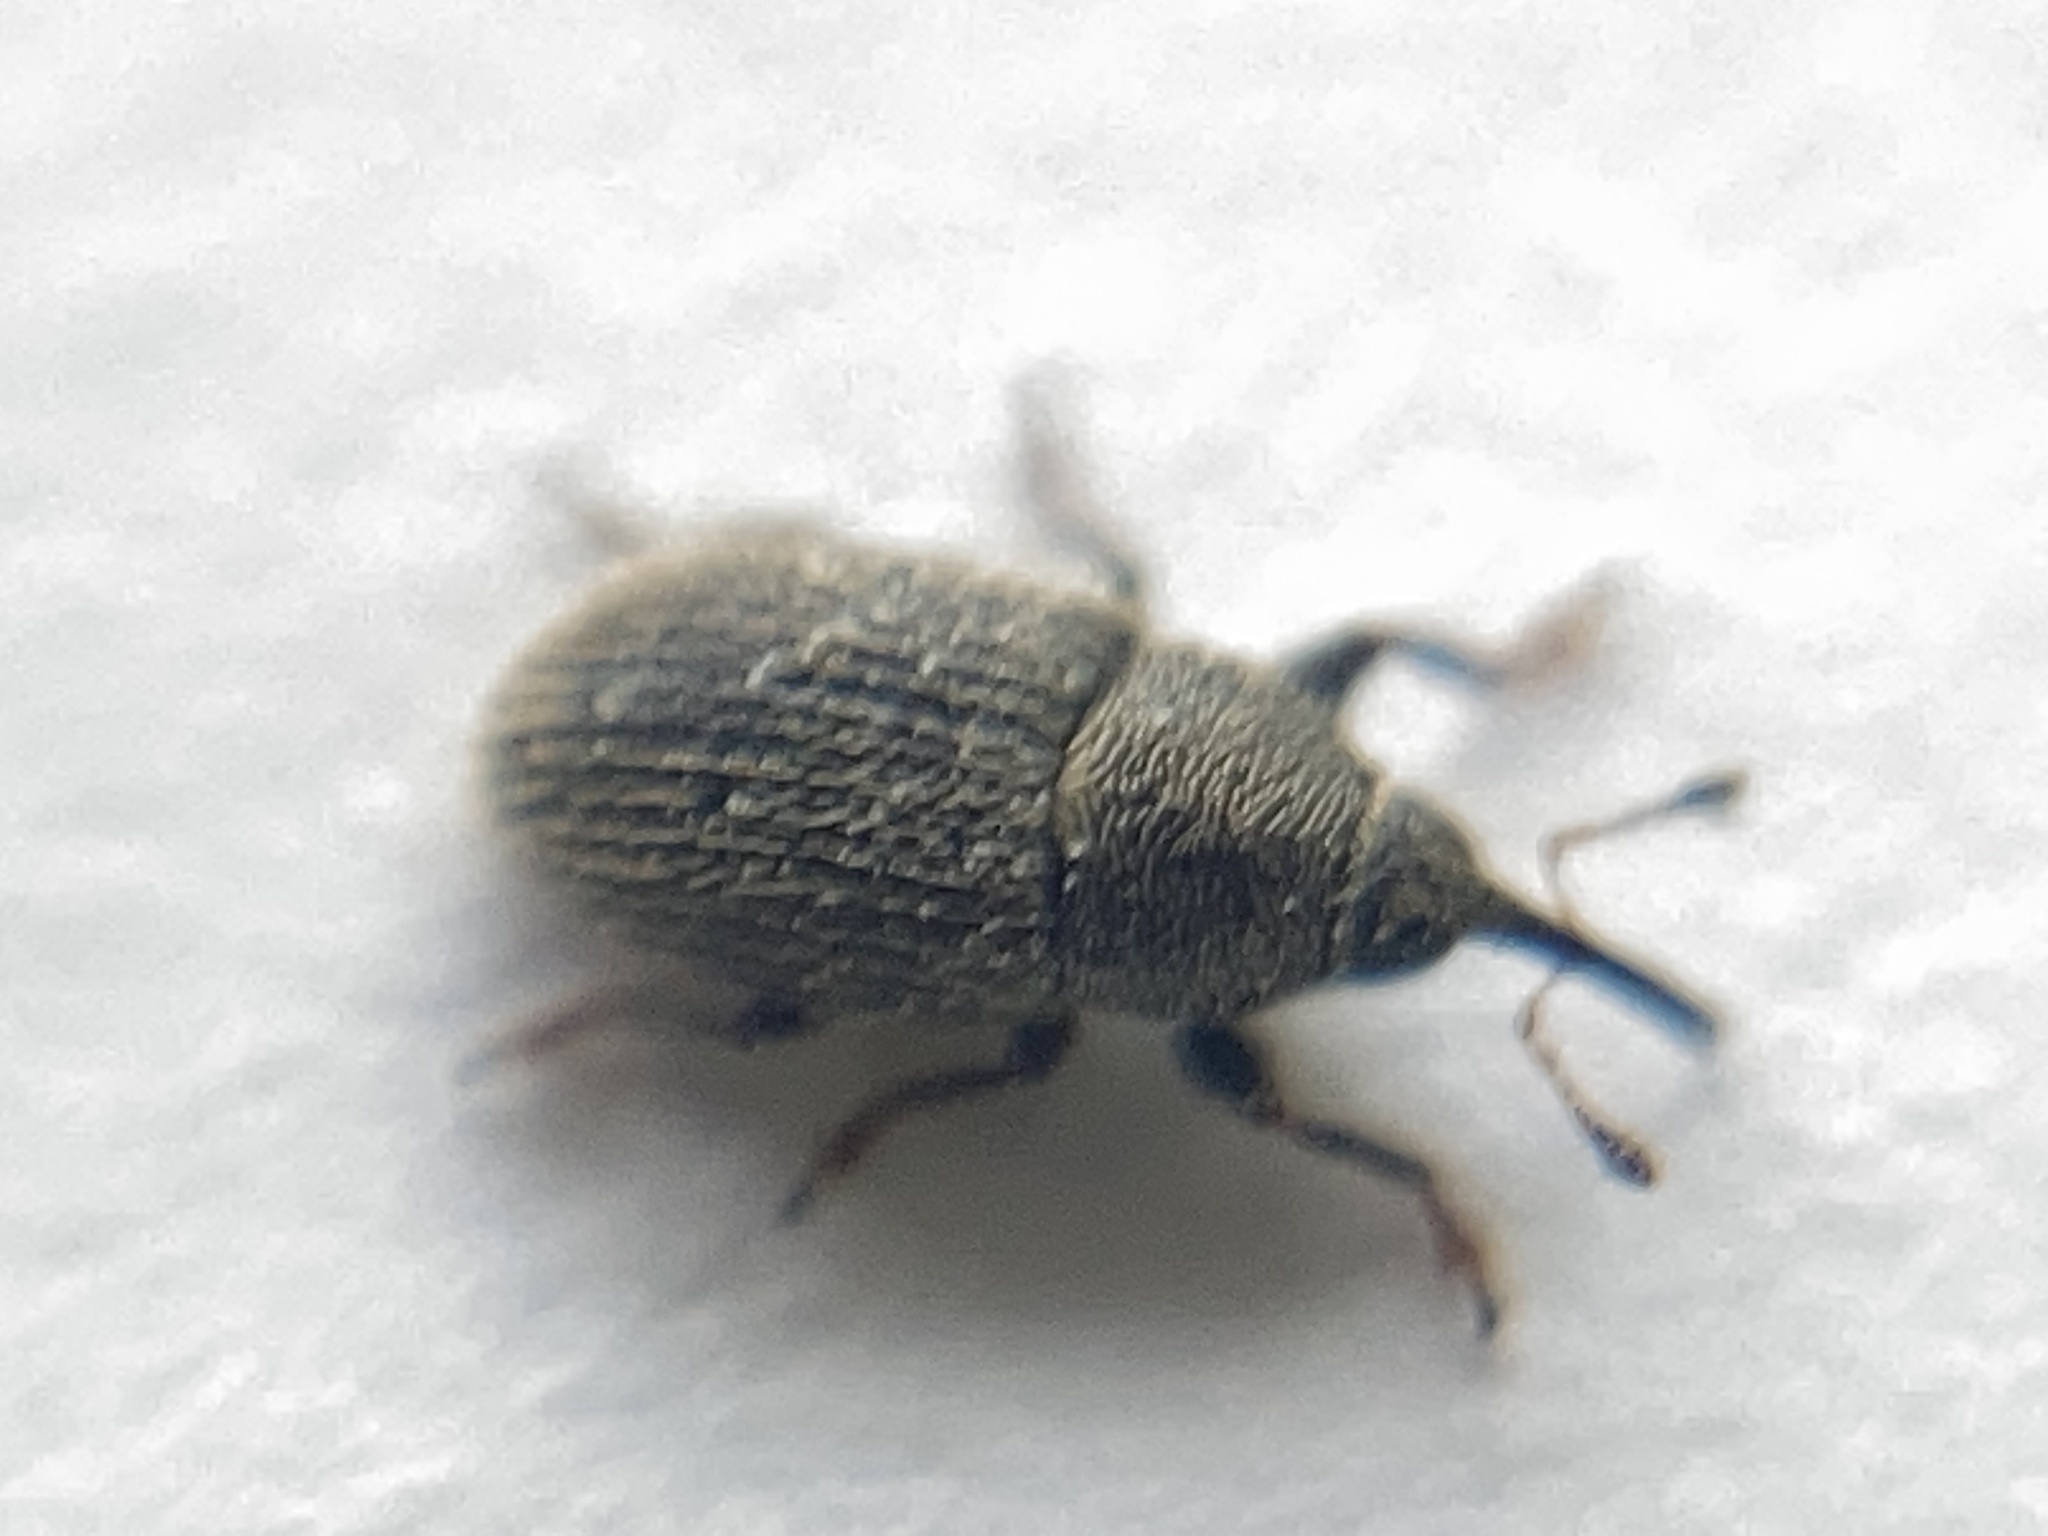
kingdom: Animalia
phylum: Arthropoda
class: Insecta
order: Coleoptera
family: Curculionidae
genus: Mecinus
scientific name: Mecinus pascuorum
